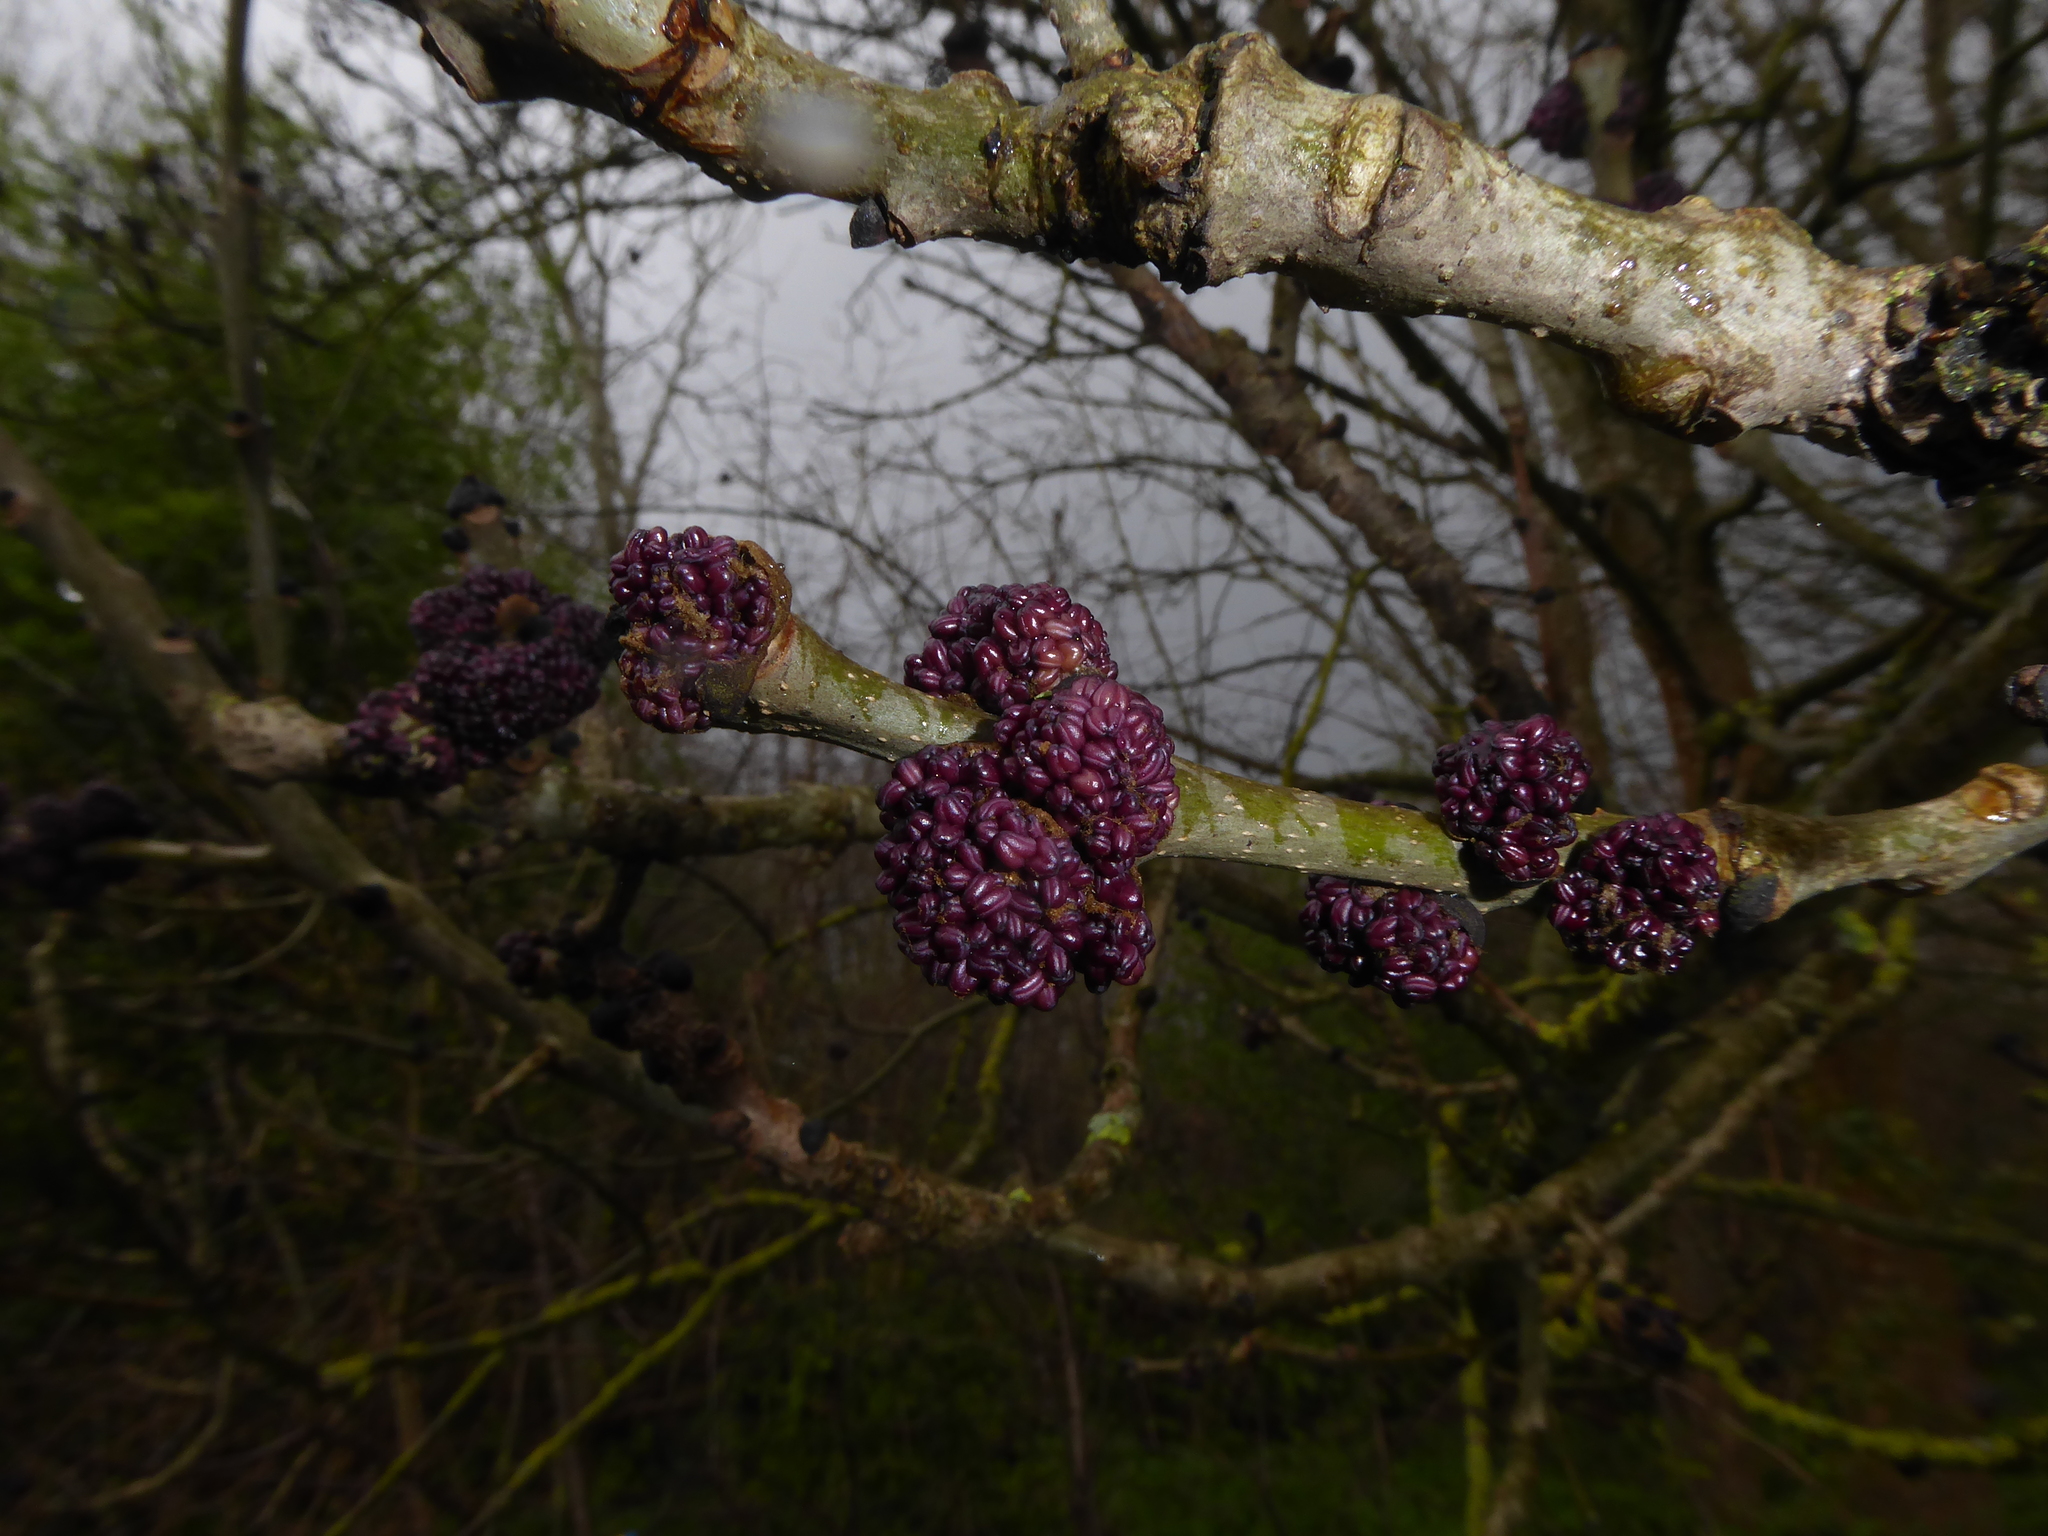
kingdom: Plantae
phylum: Tracheophyta
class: Magnoliopsida
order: Lamiales
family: Oleaceae
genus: Fraxinus
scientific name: Fraxinus excelsior
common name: European ash
